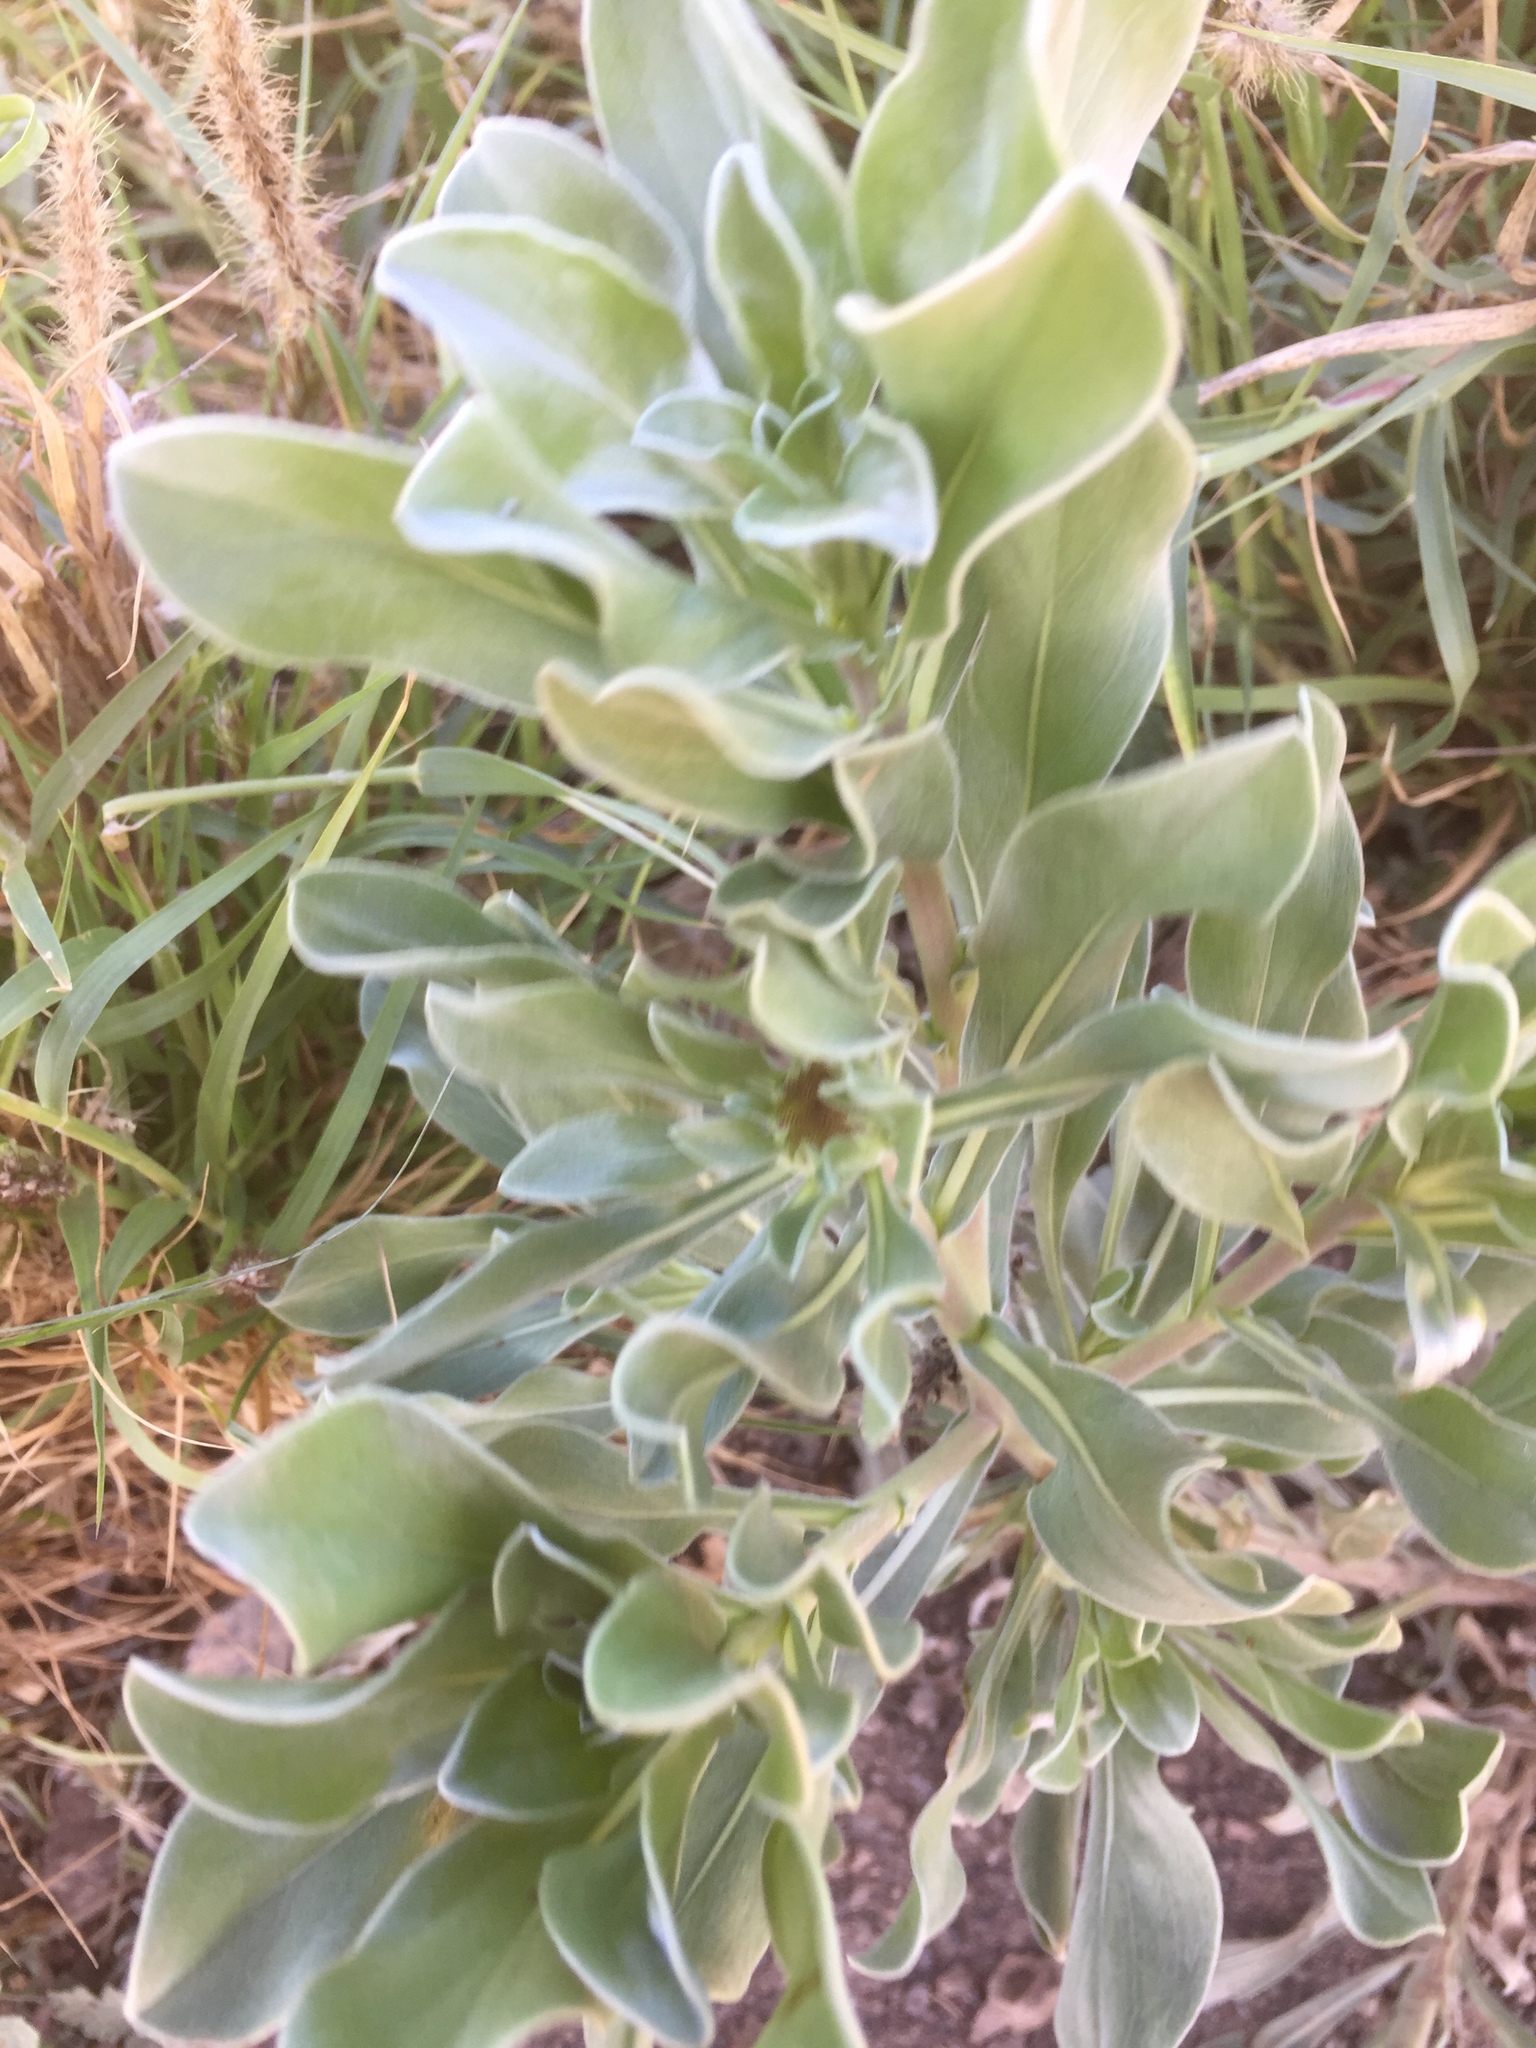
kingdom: Plantae
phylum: Tracheophyta
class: Magnoliopsida
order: Asterales
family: Asteraceae
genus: Asteriscus
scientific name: Asteriscus intermedius
